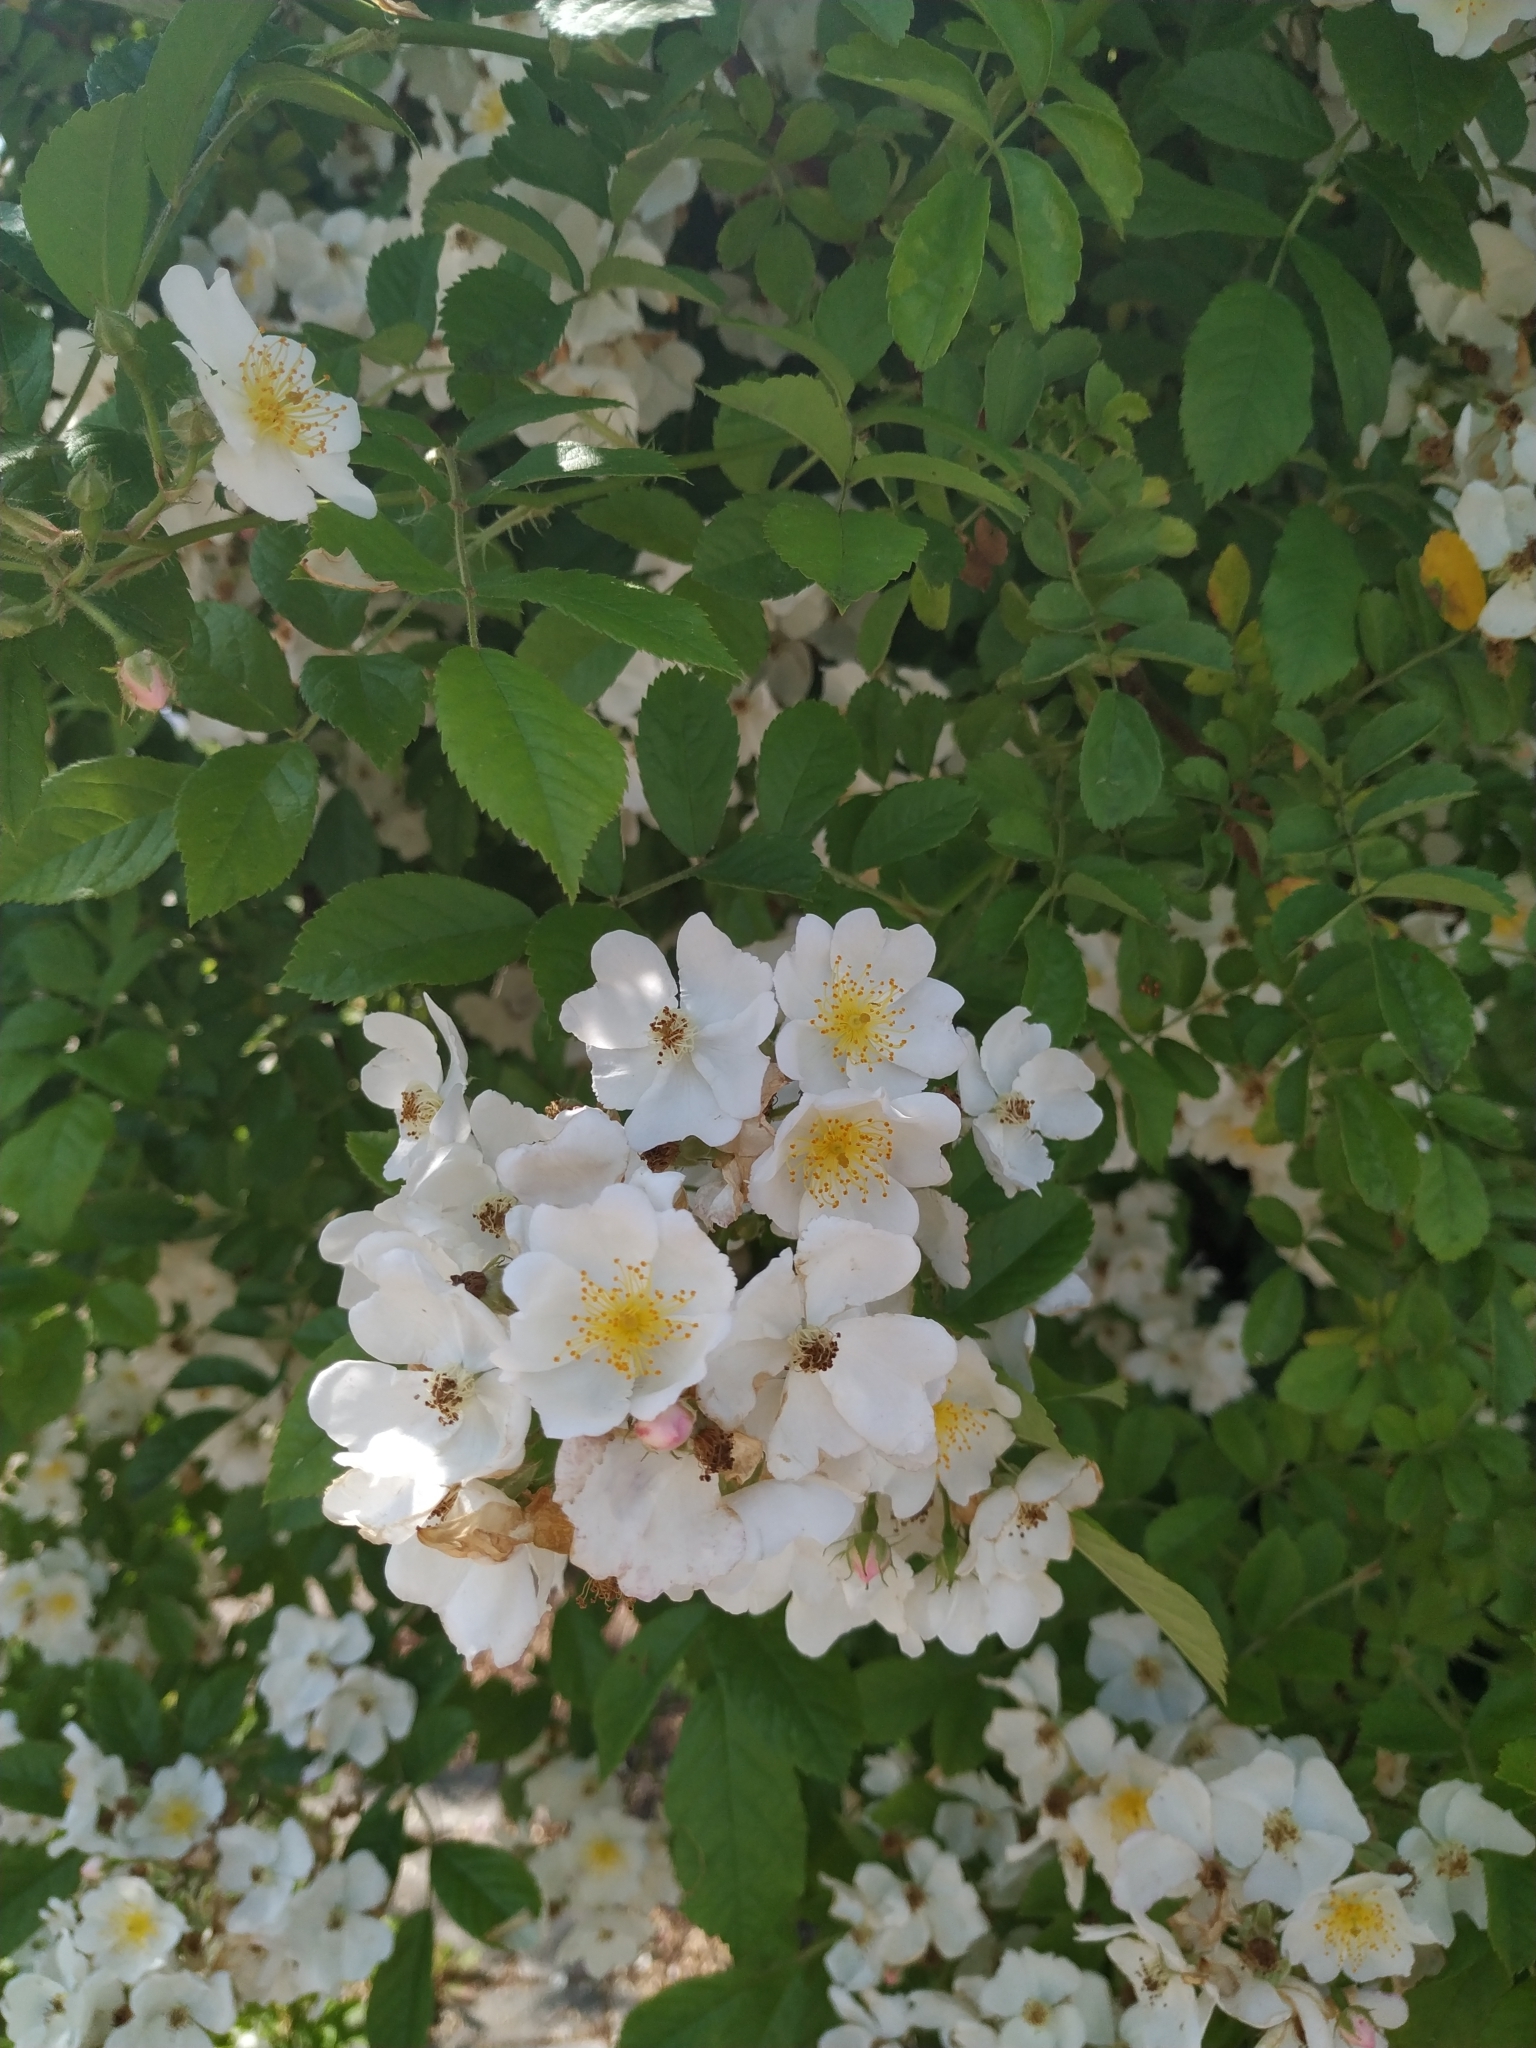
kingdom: Plantae
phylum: Tracheophyta
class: Magnoliopsida
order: Rosales
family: Rosaceae
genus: Rosa
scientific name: Rosa multiflora
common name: Multiflora rose
